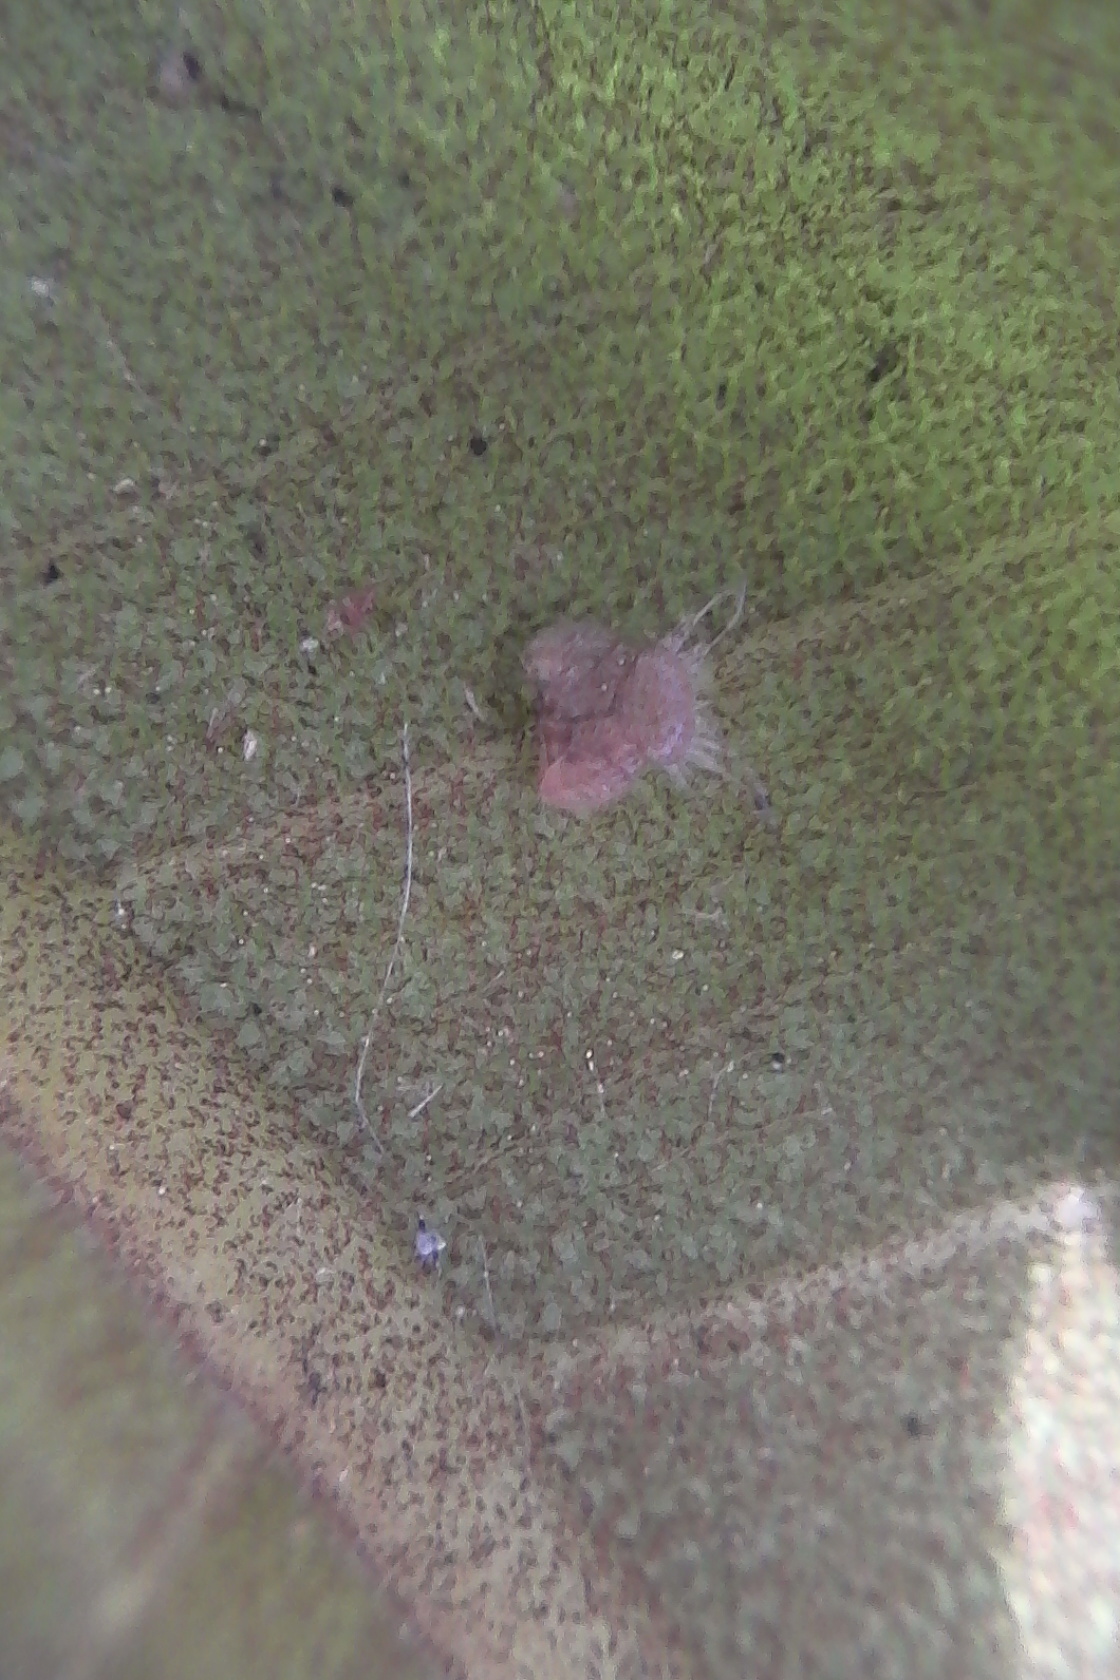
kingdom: Animalia
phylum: Arthropoda
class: Insecta
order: Hemiptera
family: Homotomidae
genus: Mycopsylla
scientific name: Mycopsylla obliqua
